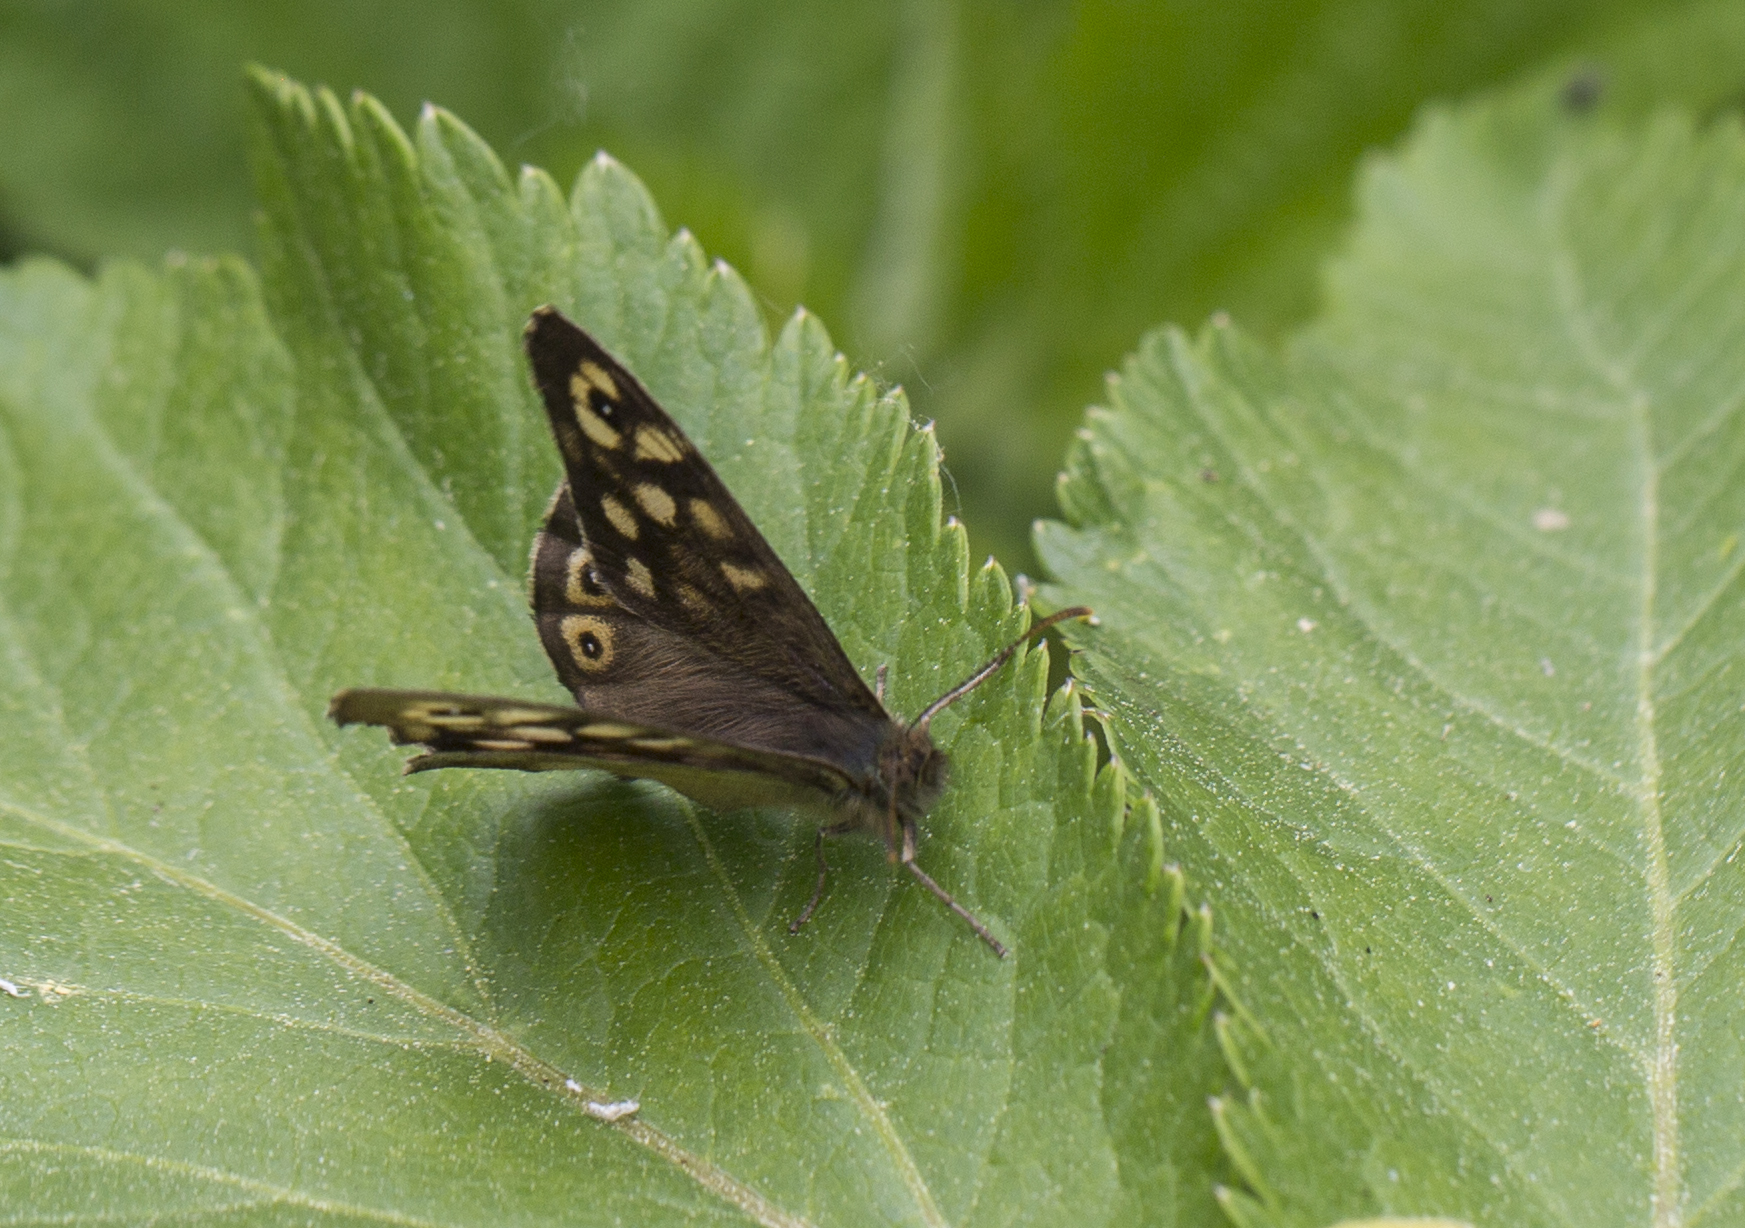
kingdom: Animalia
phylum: Arthropoda
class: Insecta
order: Lepidoptera
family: Nymphalidae
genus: Pararge
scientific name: Pararge aegeria
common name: Speckled wood
